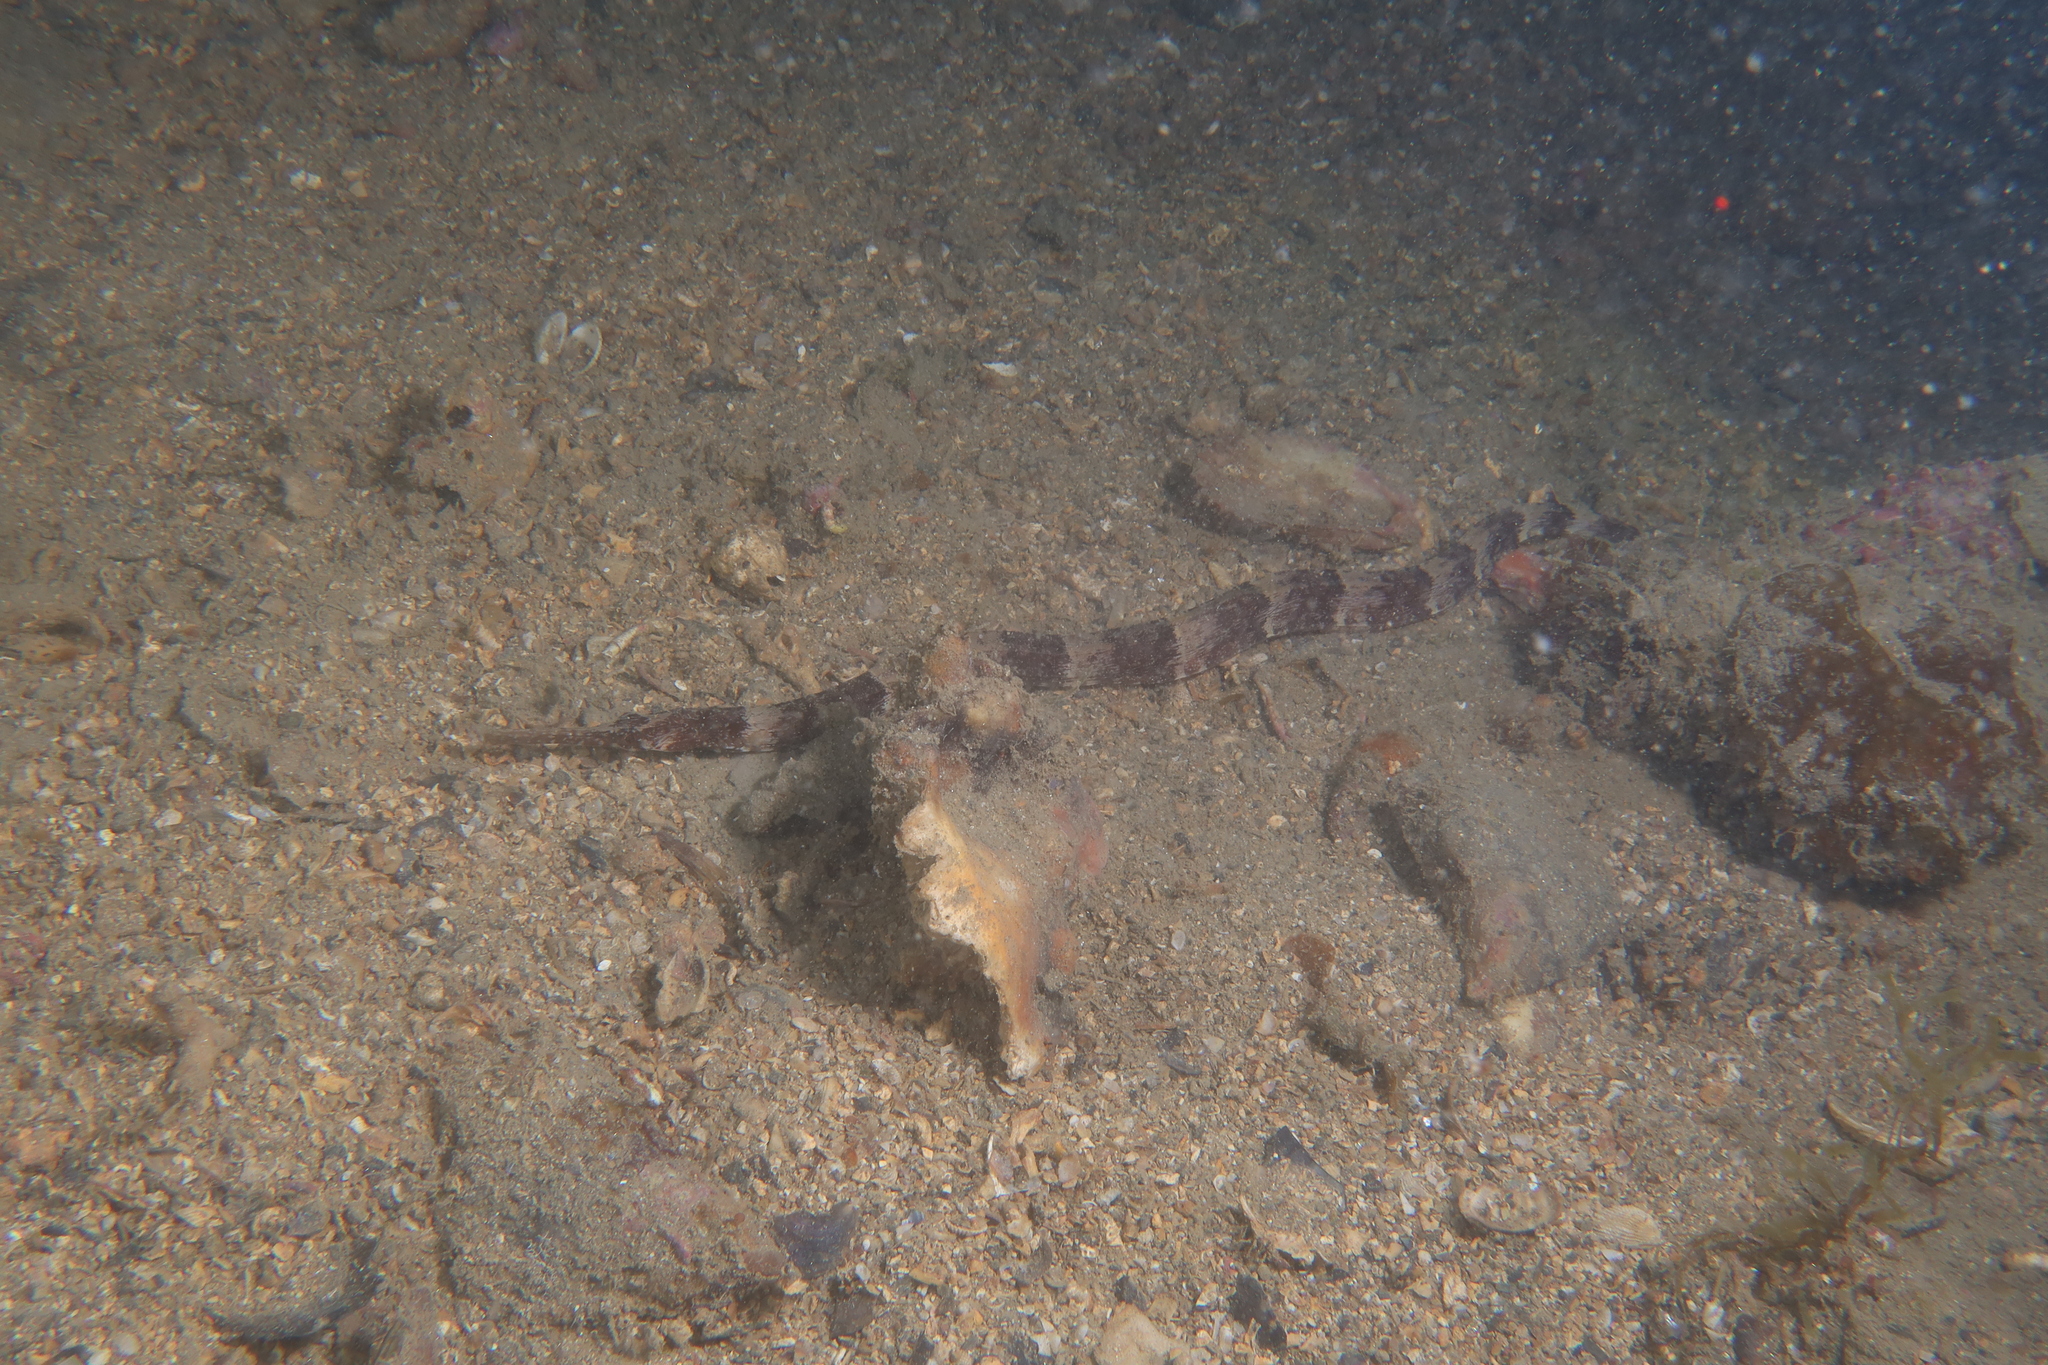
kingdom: Animalia
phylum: Chordata
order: Syngnathiformes
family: Syngnathidae
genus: Syngnathus
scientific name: Syngnathus tenuirostris
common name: Narrow-snouted pipefish
